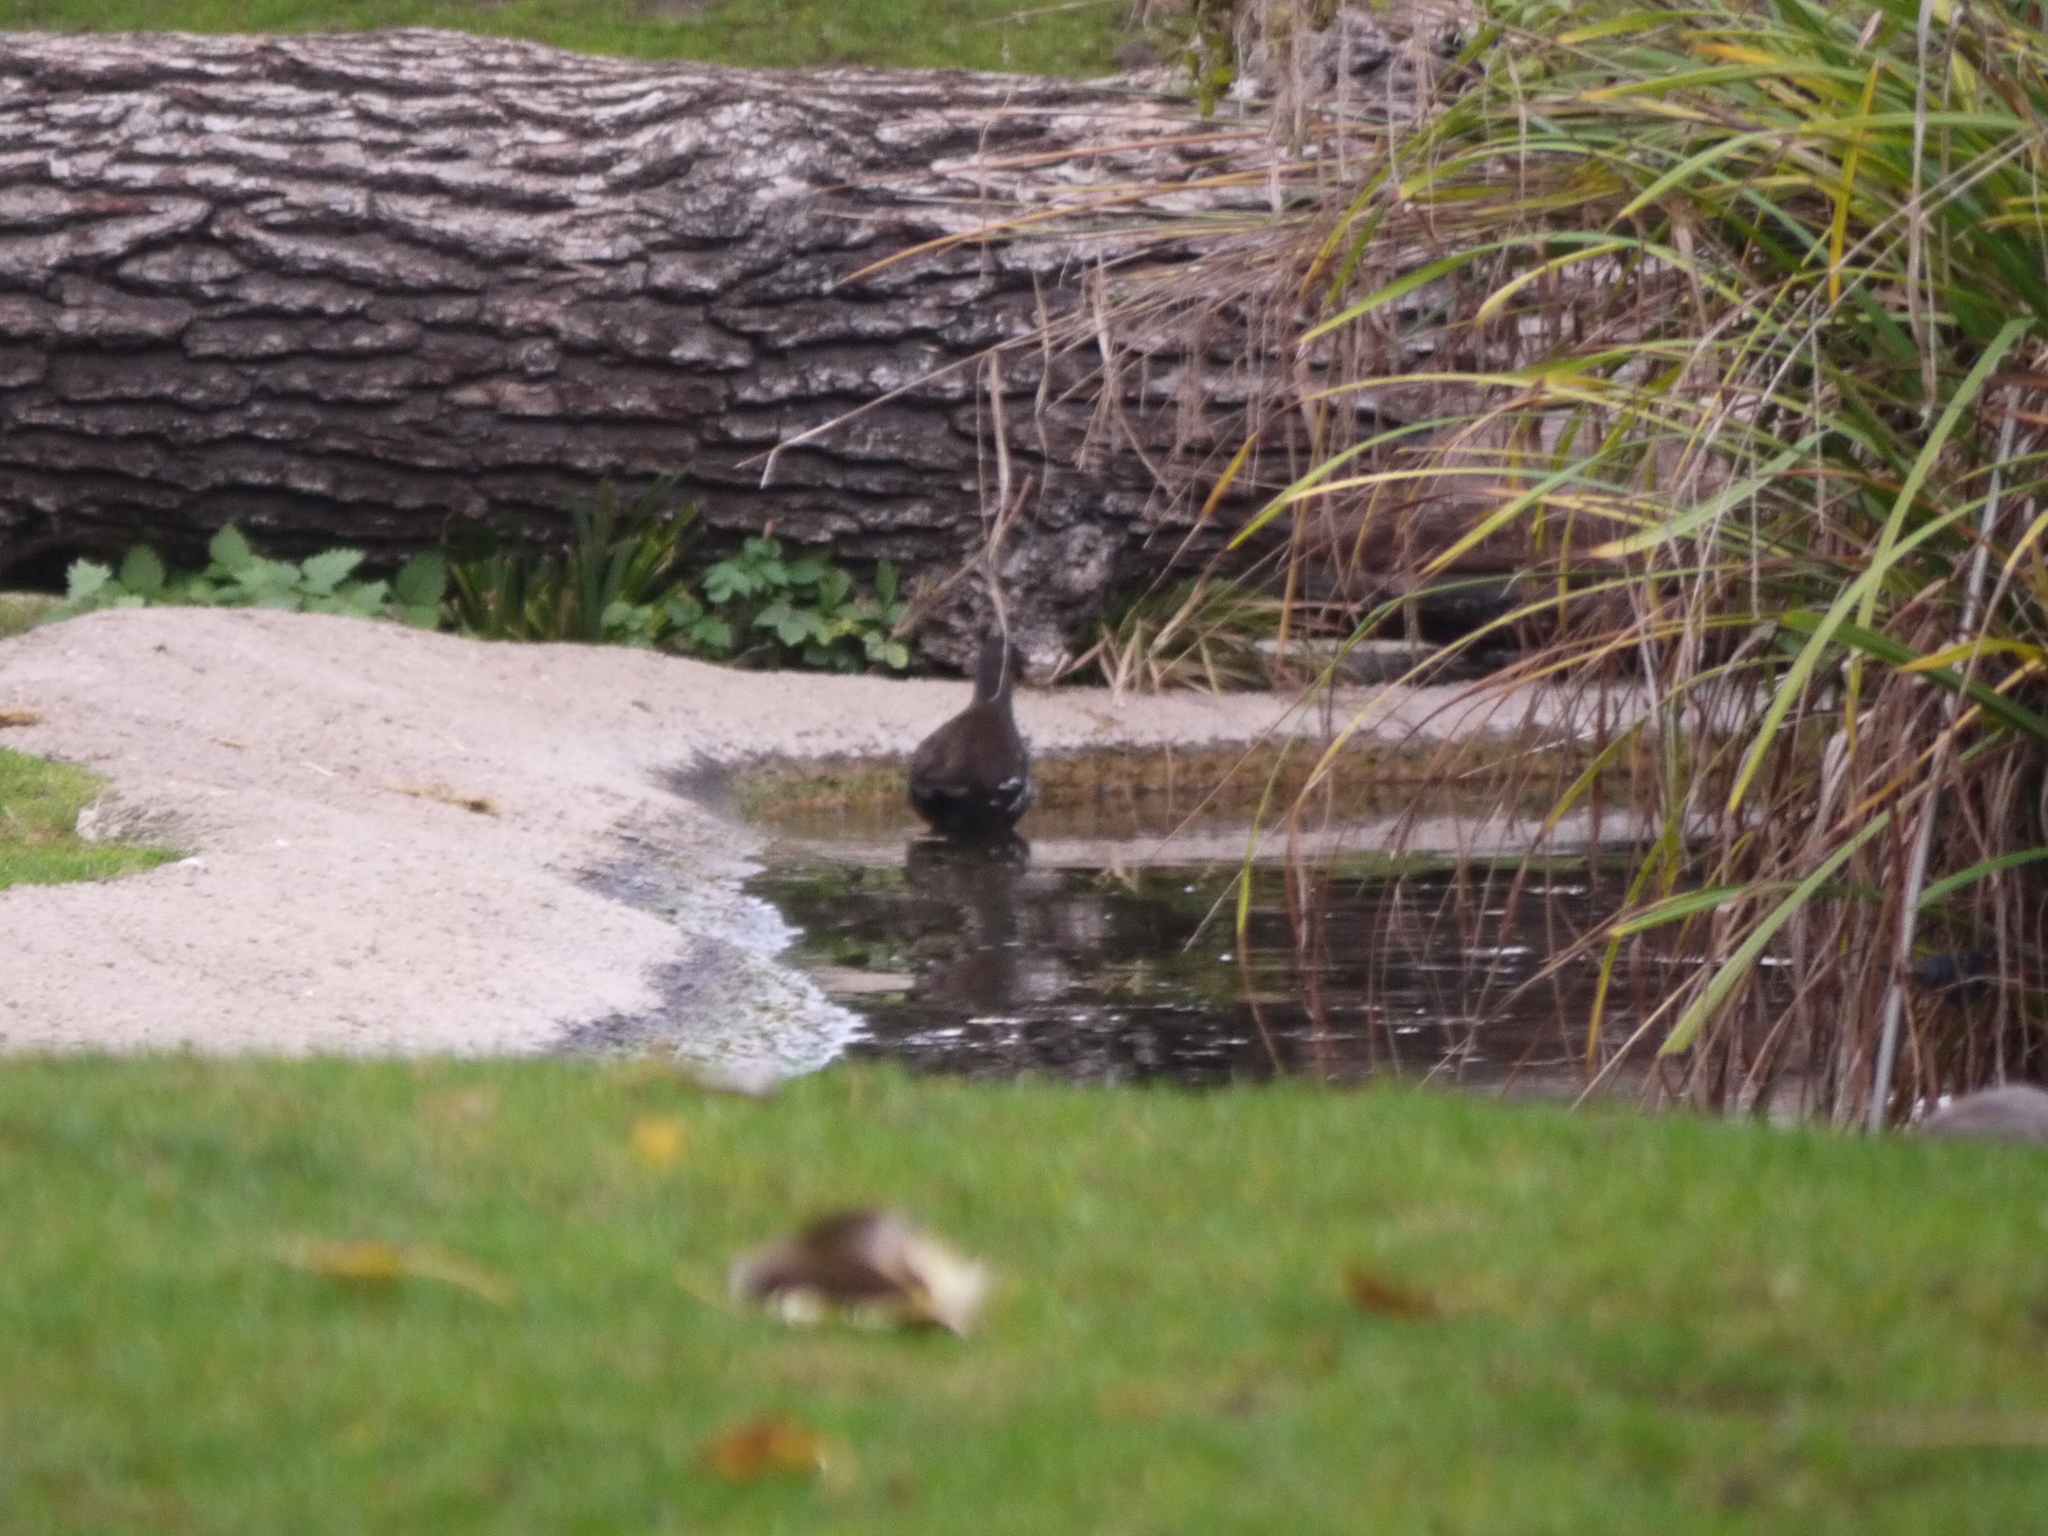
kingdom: Animalia
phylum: Chordata
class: Aves
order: Gruiformes
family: Rallidae
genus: Gallinula
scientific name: Gallinula chloropus
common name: Common moorhen
